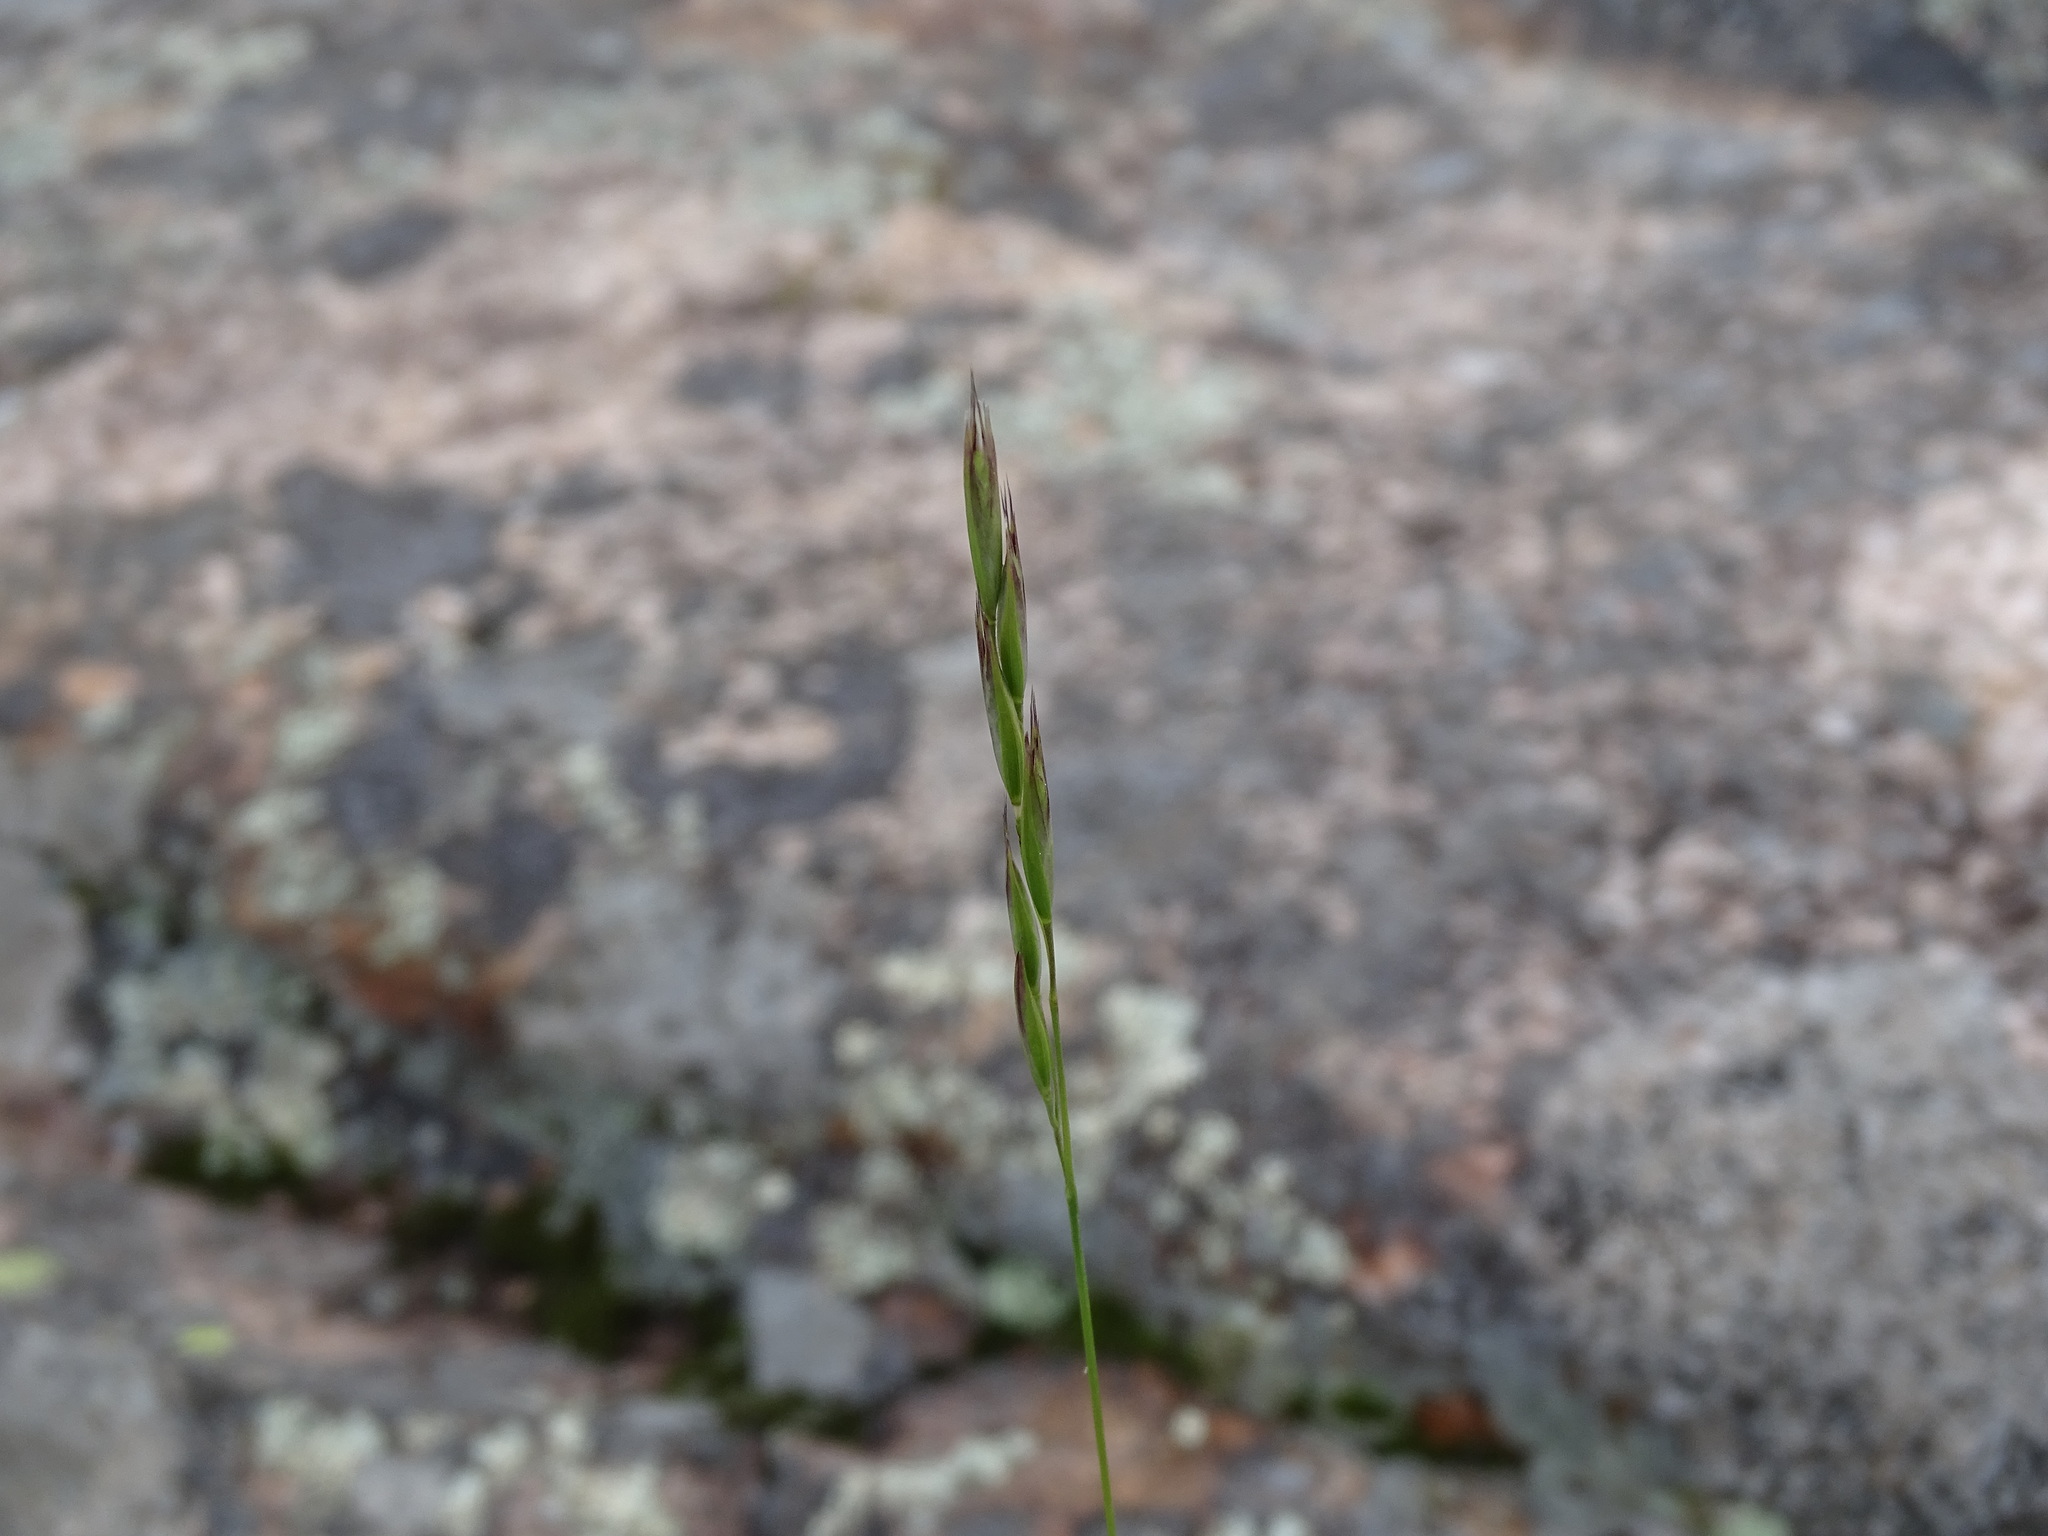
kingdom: Plantae
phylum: Tracheophyta
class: Liliopsida
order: Poales
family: Poaceae
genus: Danthonia
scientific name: Danthonia spicata
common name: Common wild oatgrass
